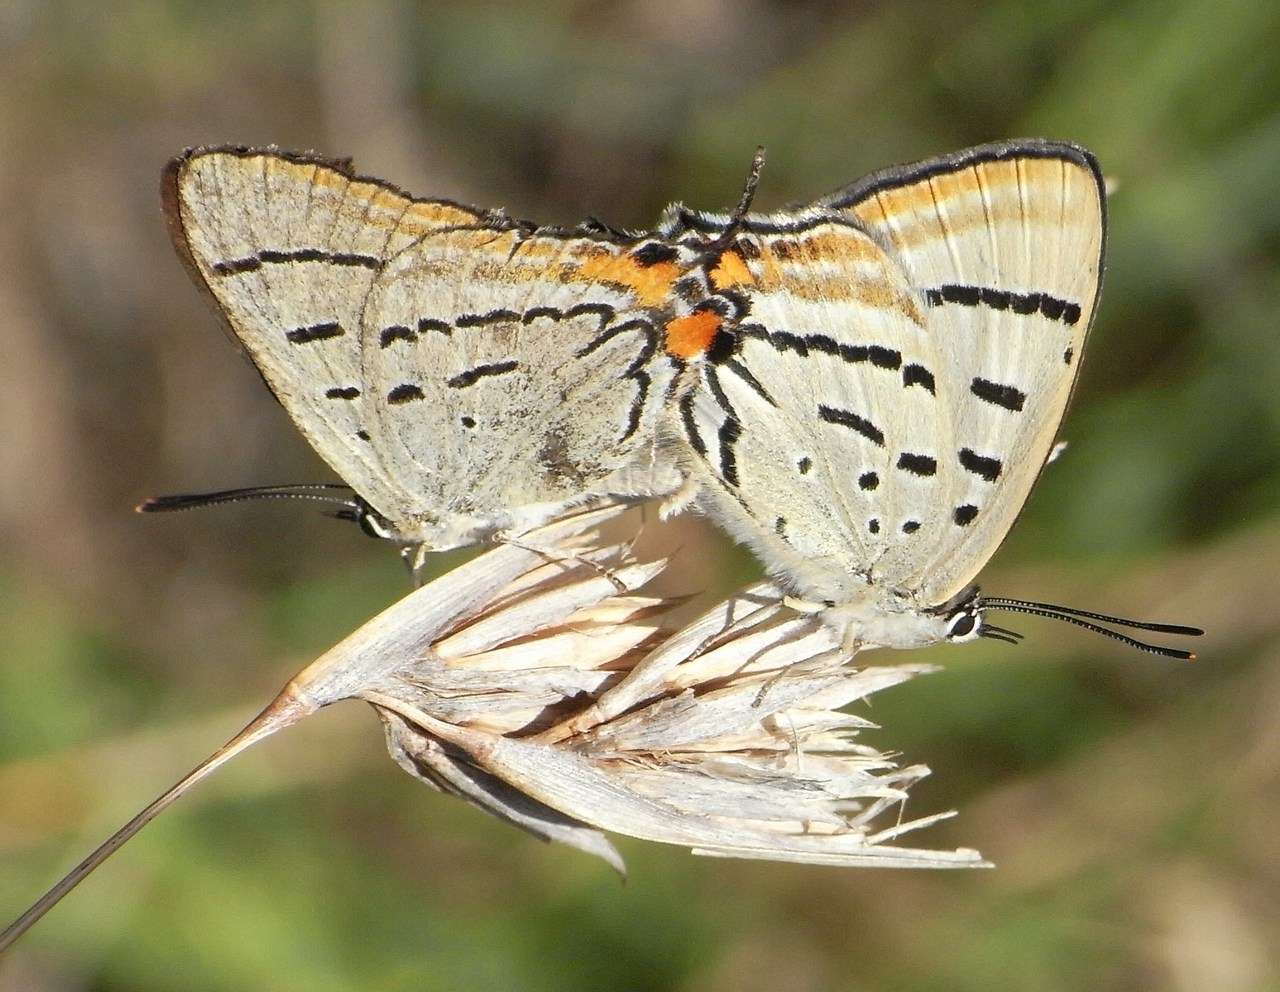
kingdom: Animalia
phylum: Arthropoda
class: Insecta
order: Lepidoptera
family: Lycaenidae
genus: Jalmenus
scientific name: Jalmenus evagoras
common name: Common imperial blue
